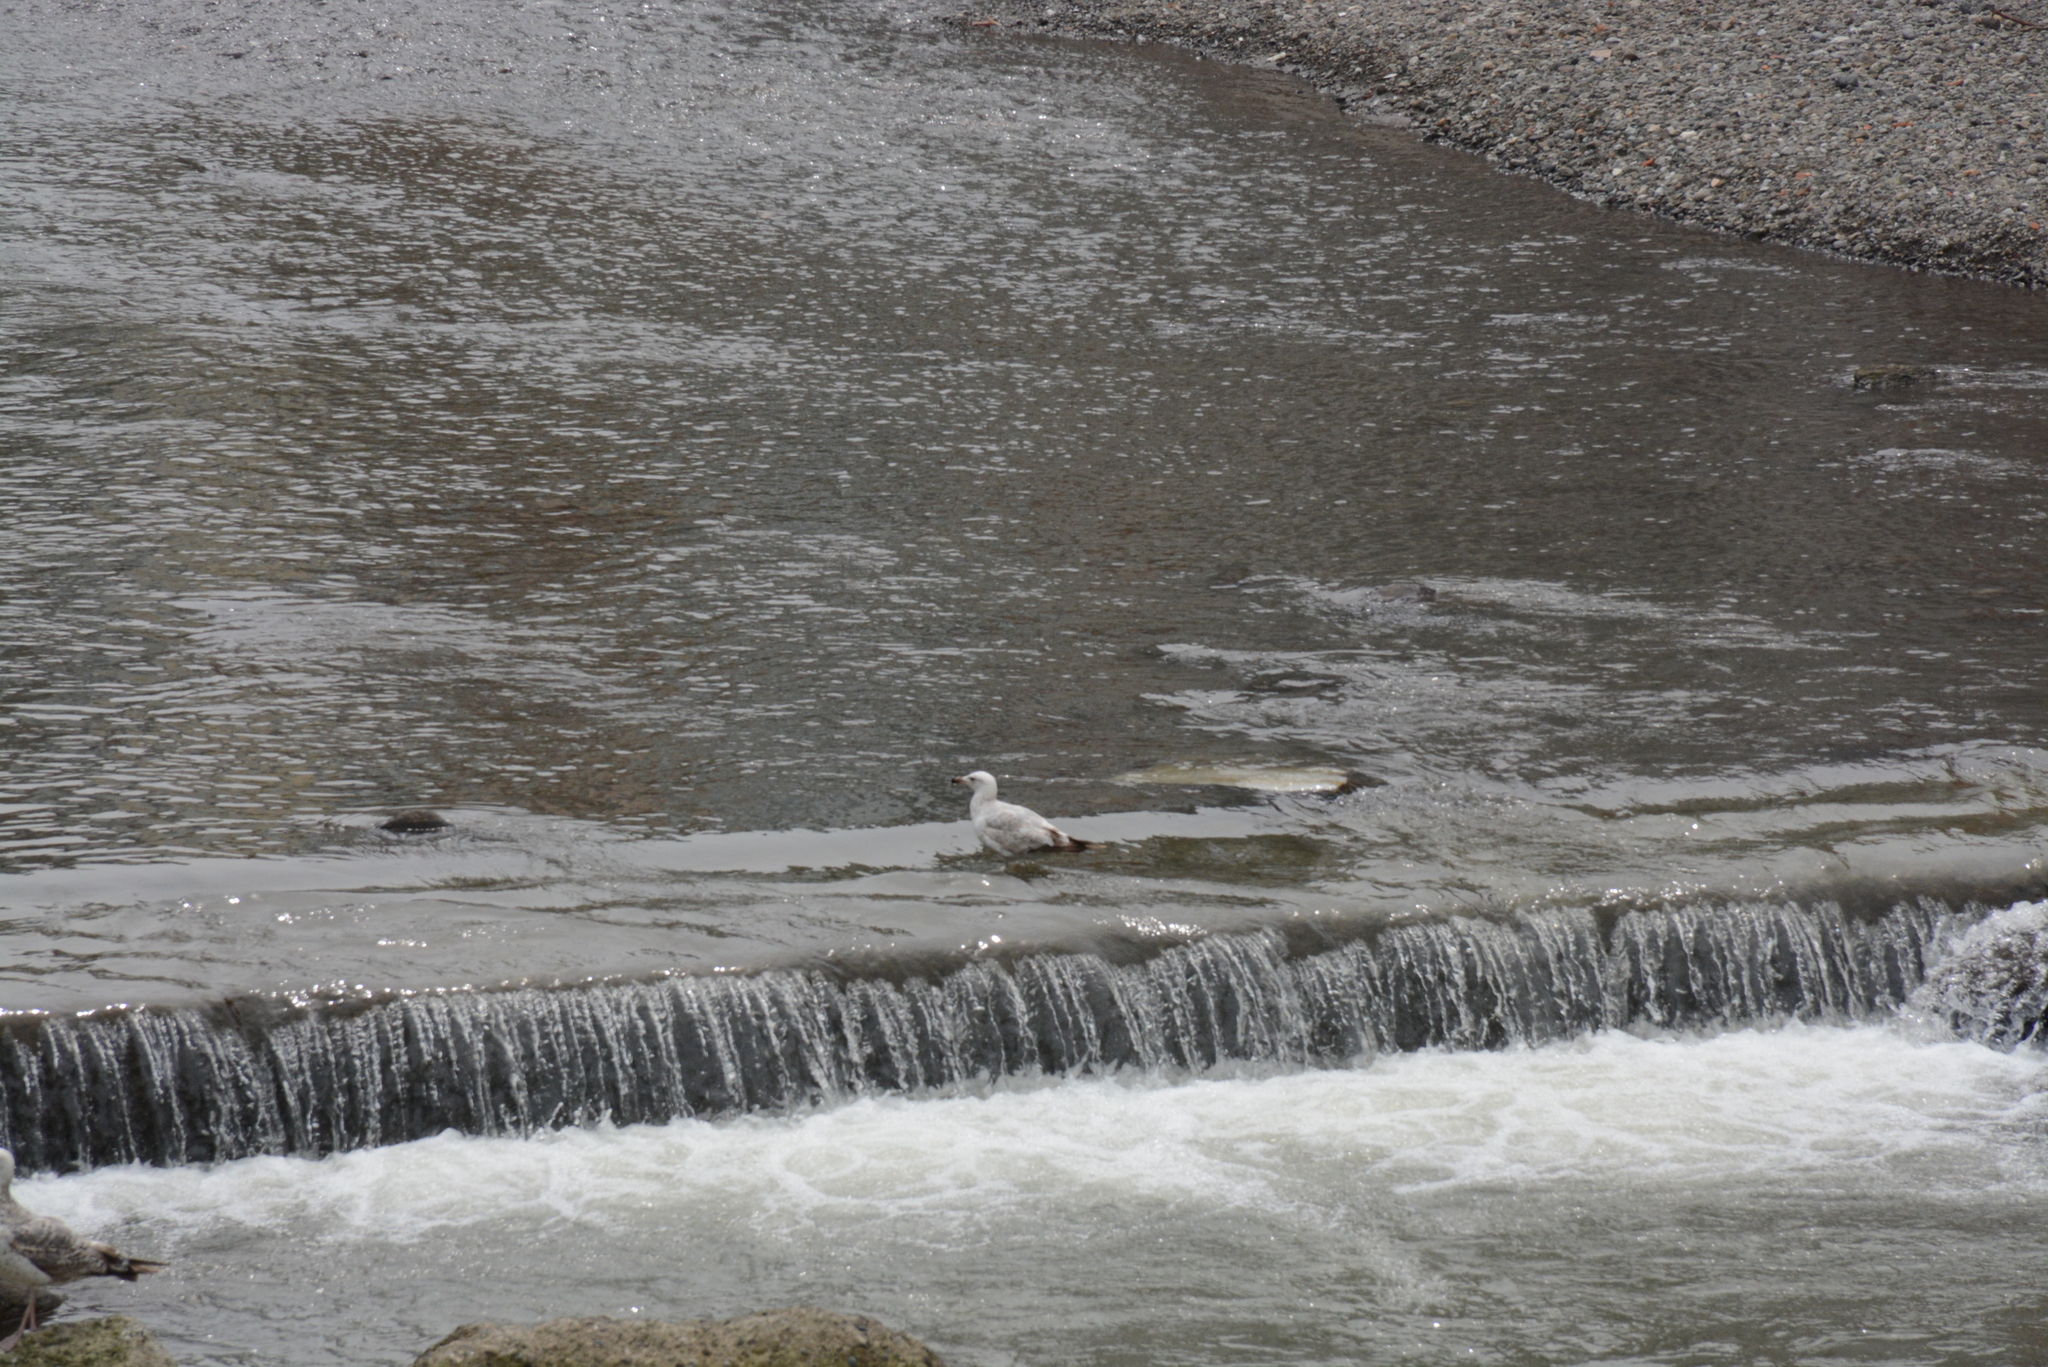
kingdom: Animalia
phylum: Chordata
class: Aves
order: Charadriiformes
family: Laridae
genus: Larus
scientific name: Larus michahellis
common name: Yellow-legged gull
